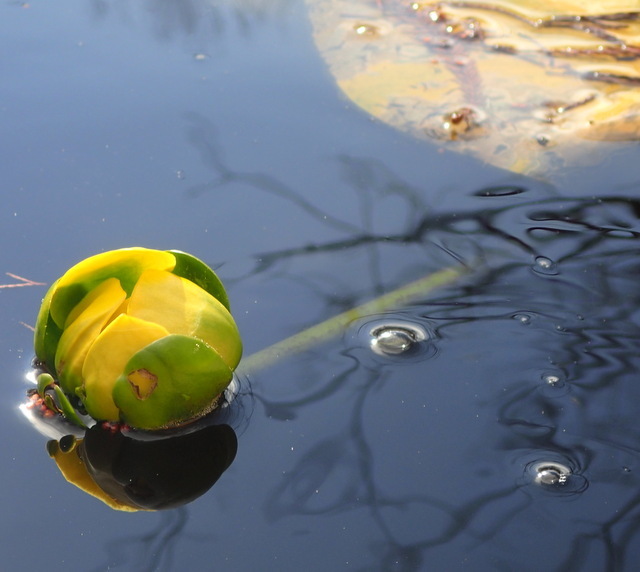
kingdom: Plantae
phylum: Tracheophyta
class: Magnoliopsida
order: Nymphaeales
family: Nymphaeaceae
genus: Nuphar
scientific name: Nuphar advena
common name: Spatter-dock
